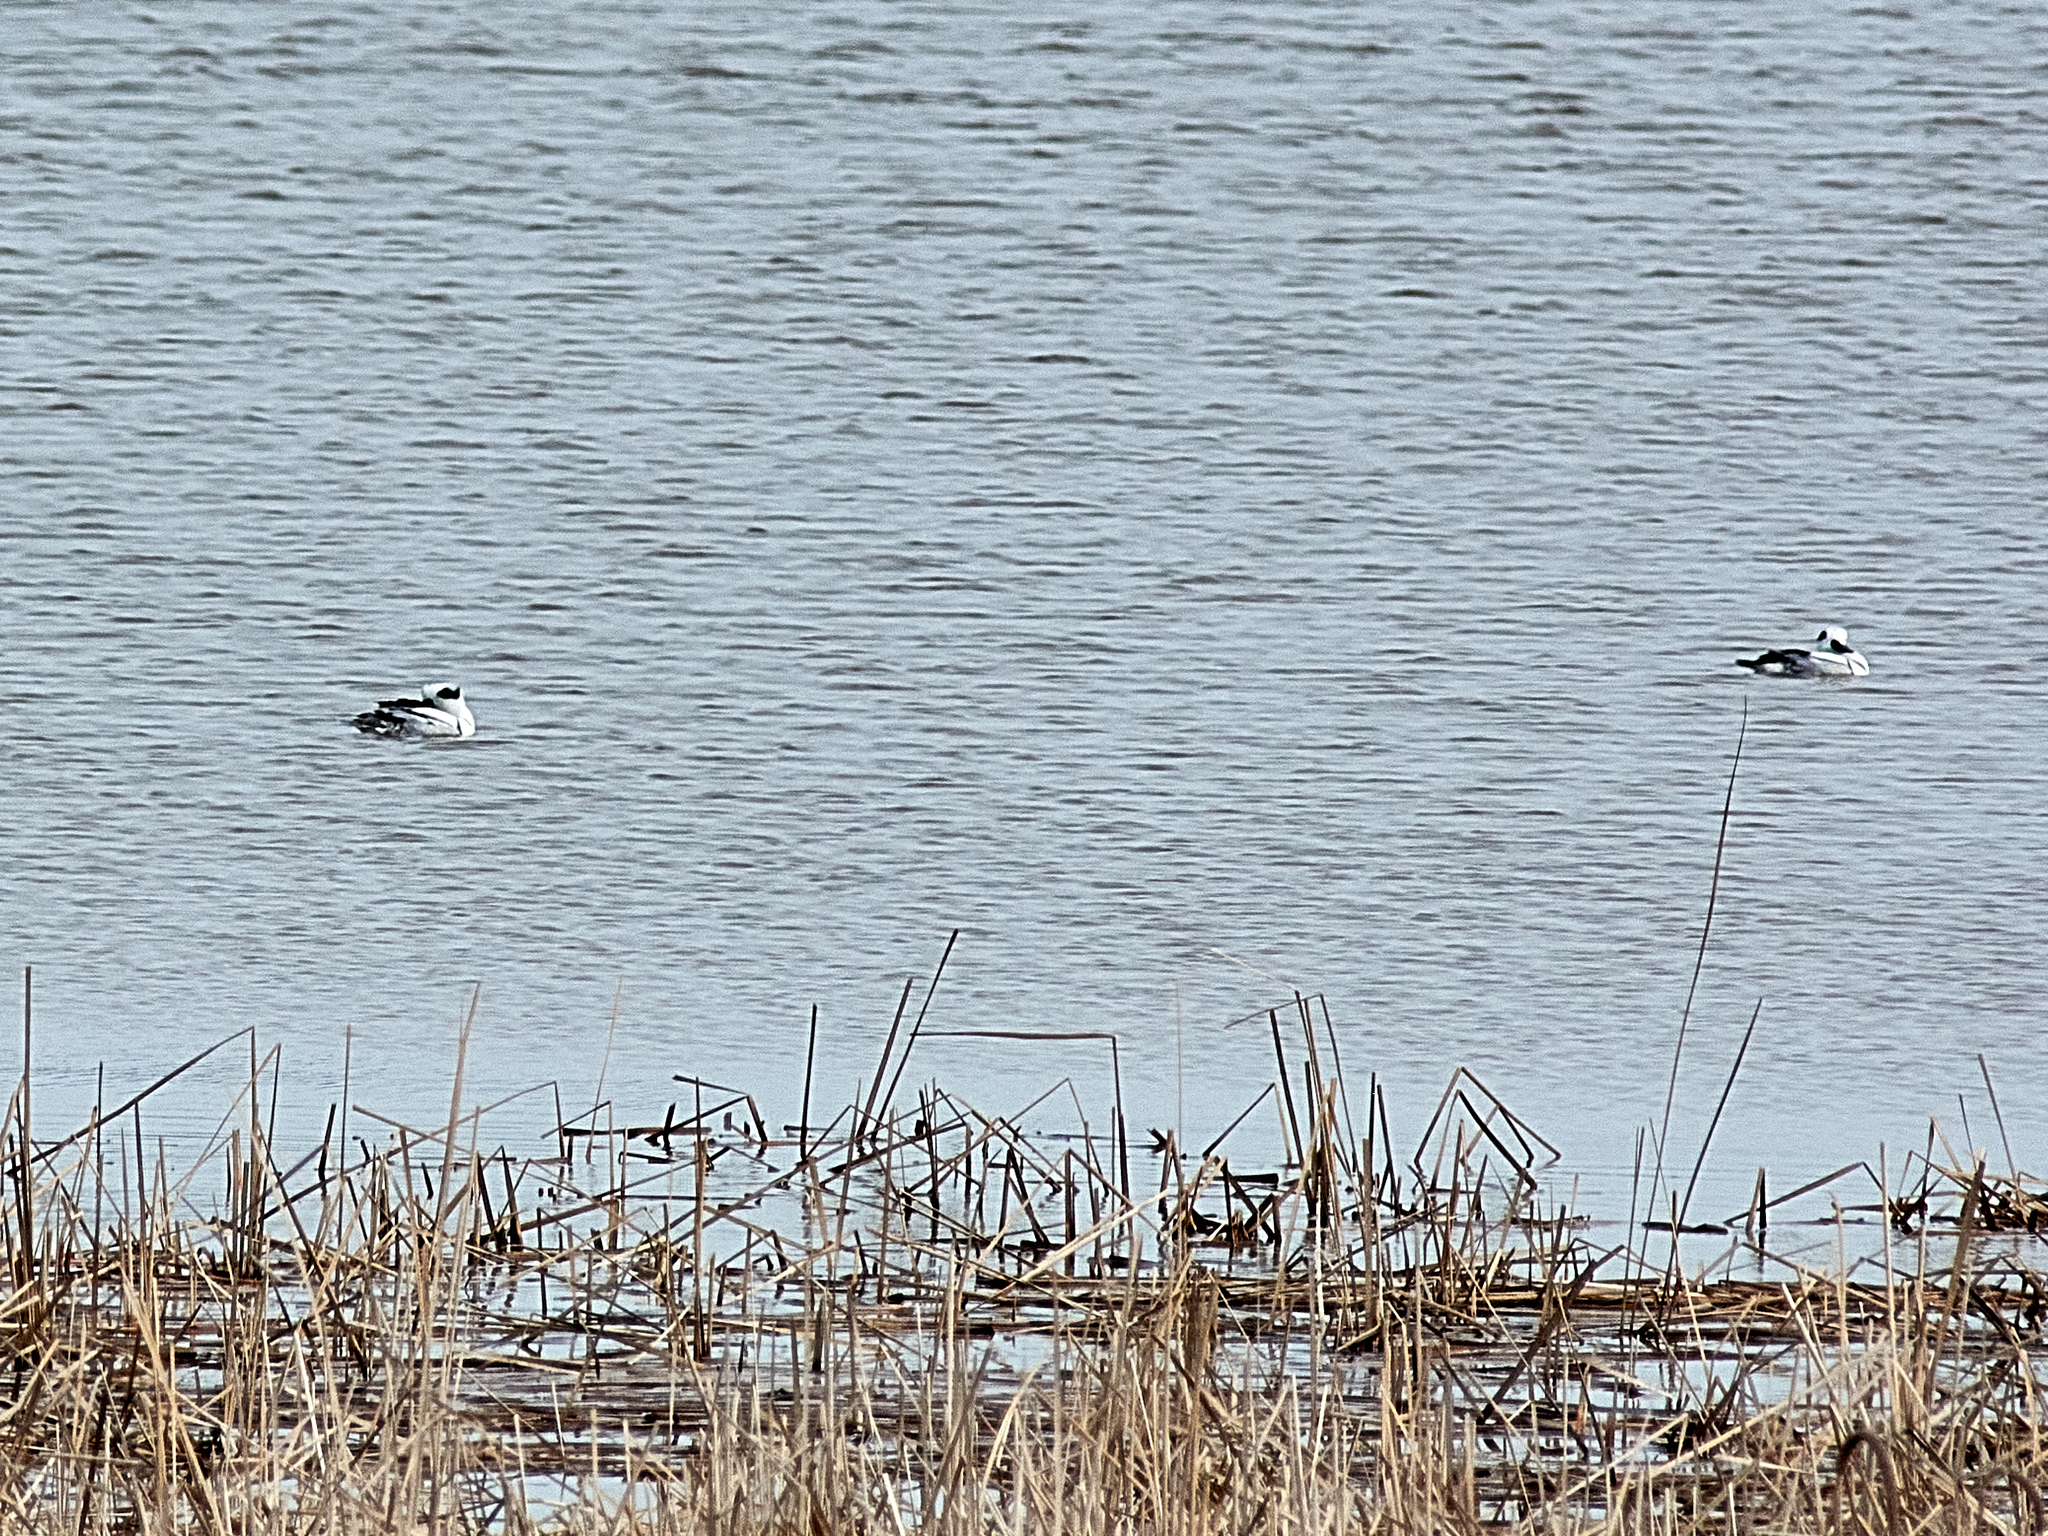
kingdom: Animalia
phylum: Chordata
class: Aves
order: Anseriformes
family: Anatidae
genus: Mergellus
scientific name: Mergellus albellus
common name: Smew
